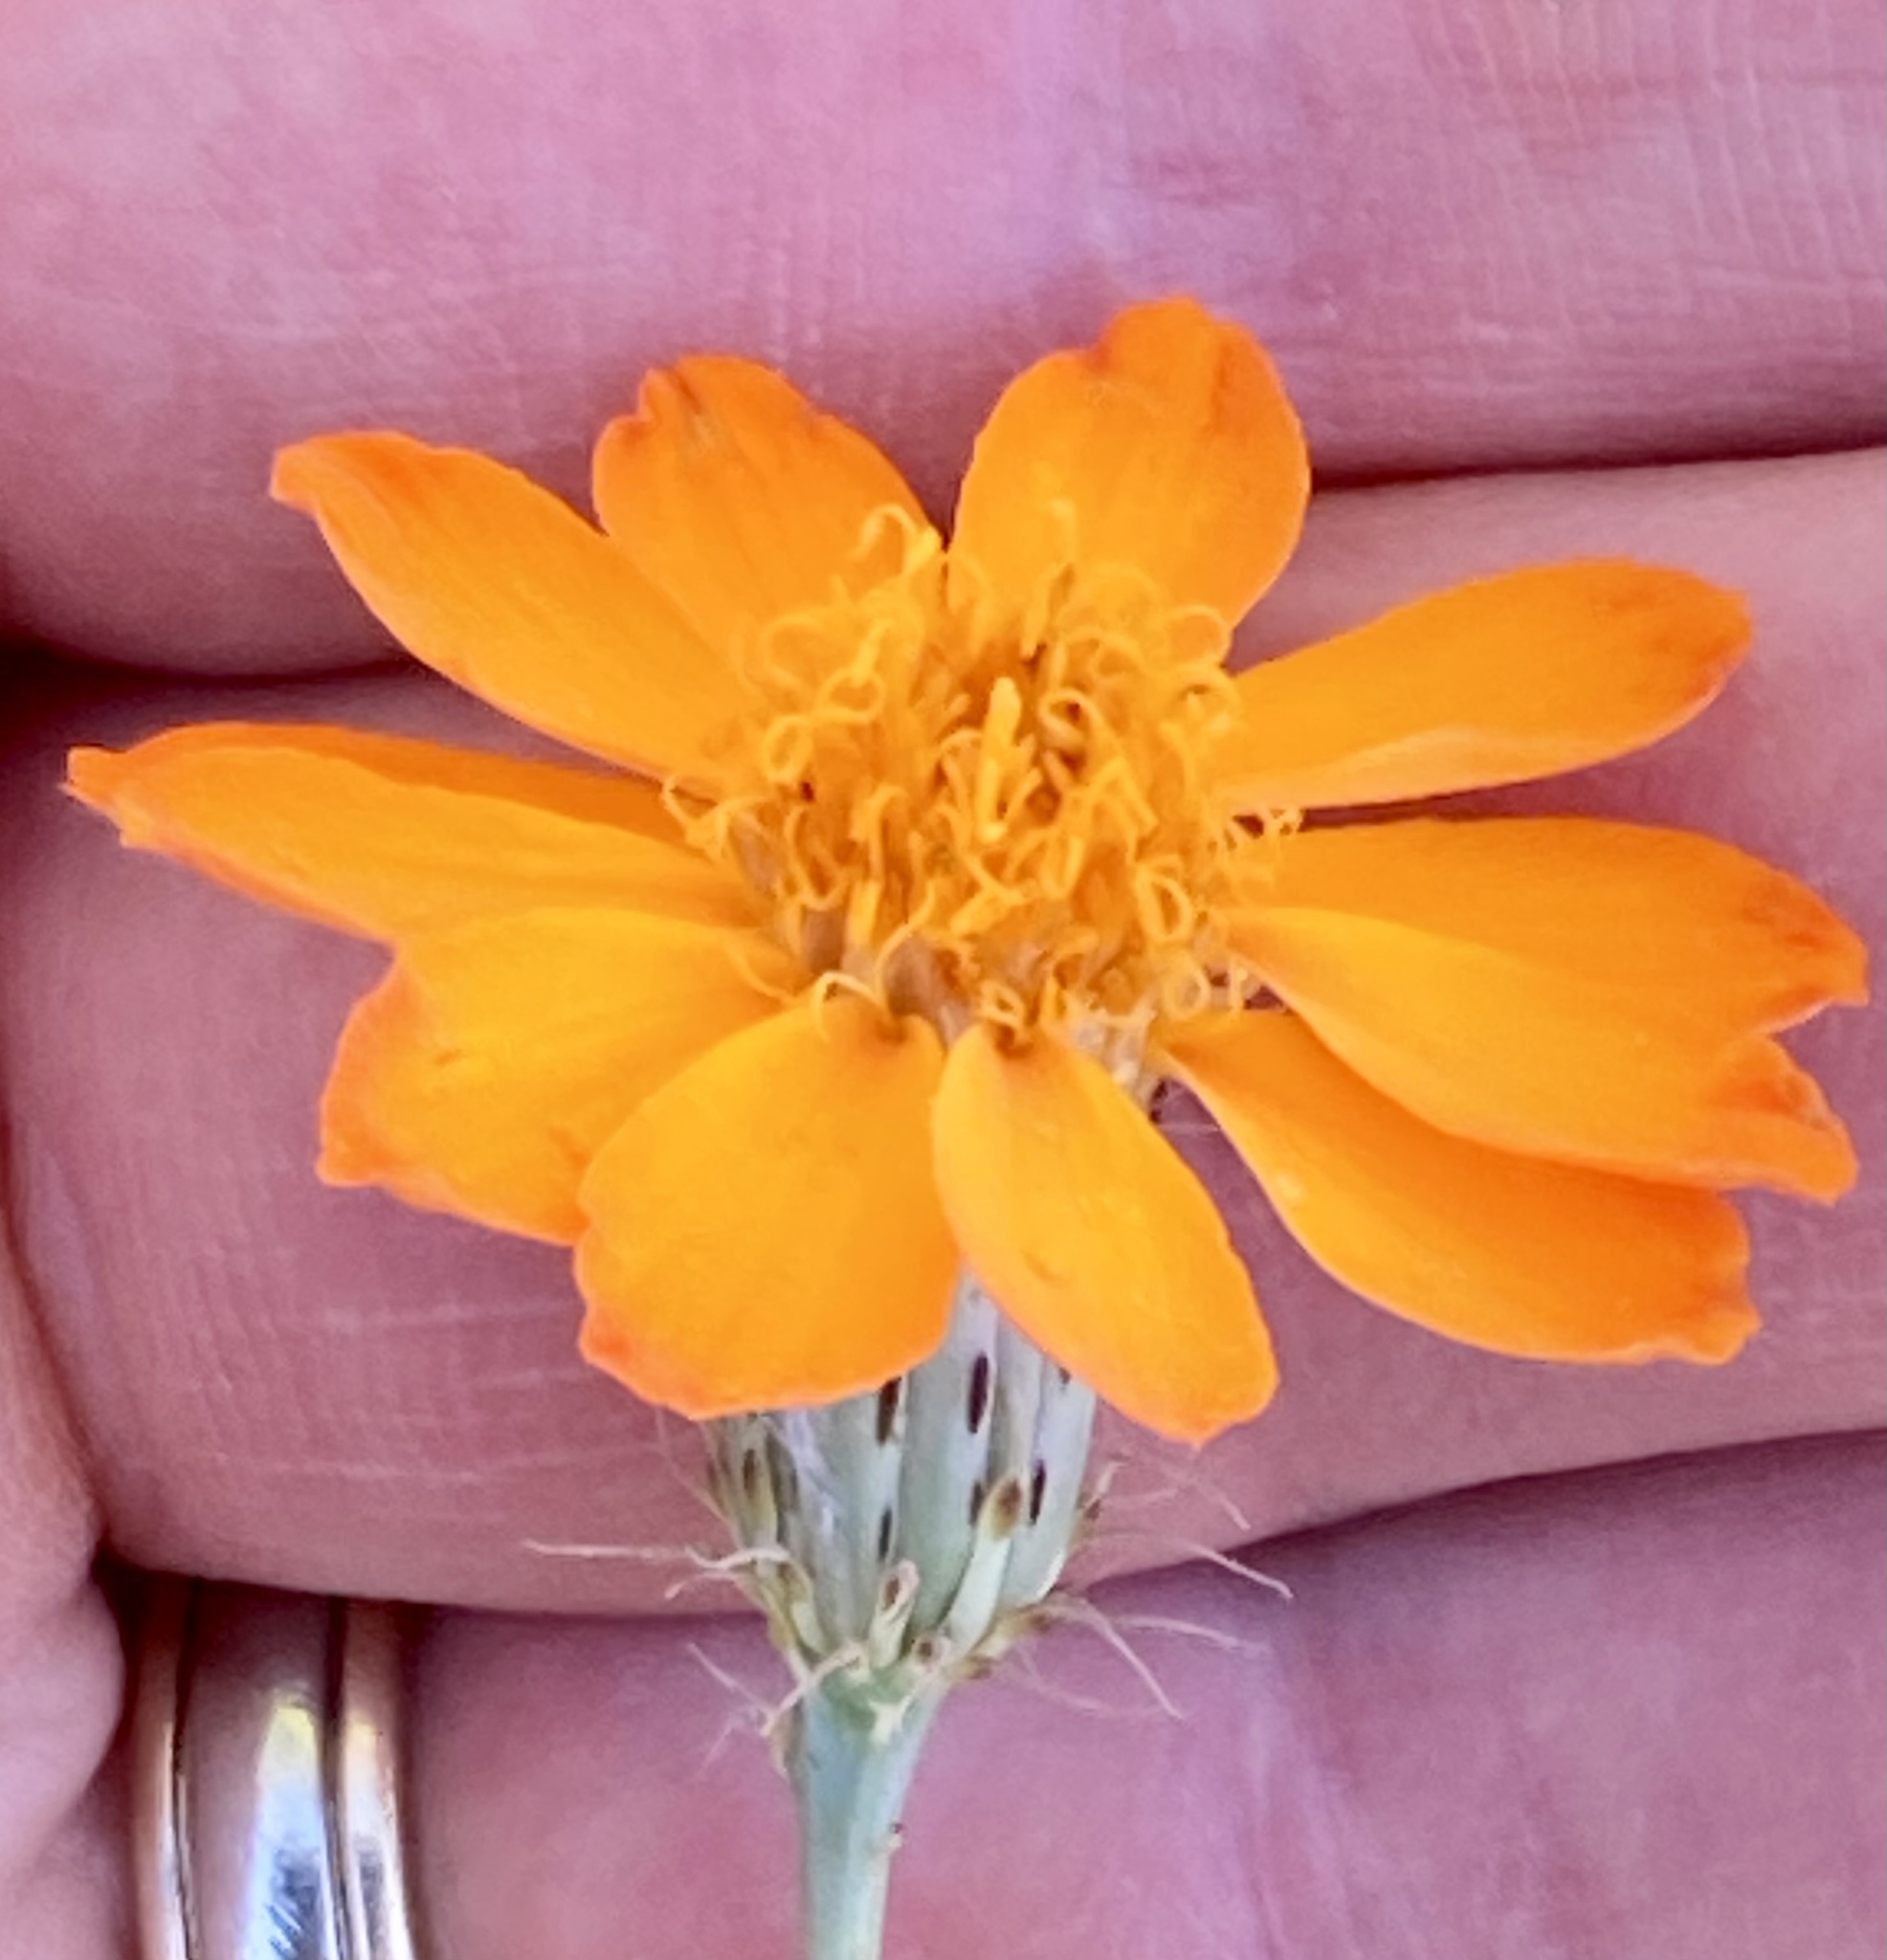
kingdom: Plantae
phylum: Tracheophyta
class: Magnoliopsida
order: Asterales
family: Asteraceae
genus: Adenophyllum
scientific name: Adenophyllum speciosum
